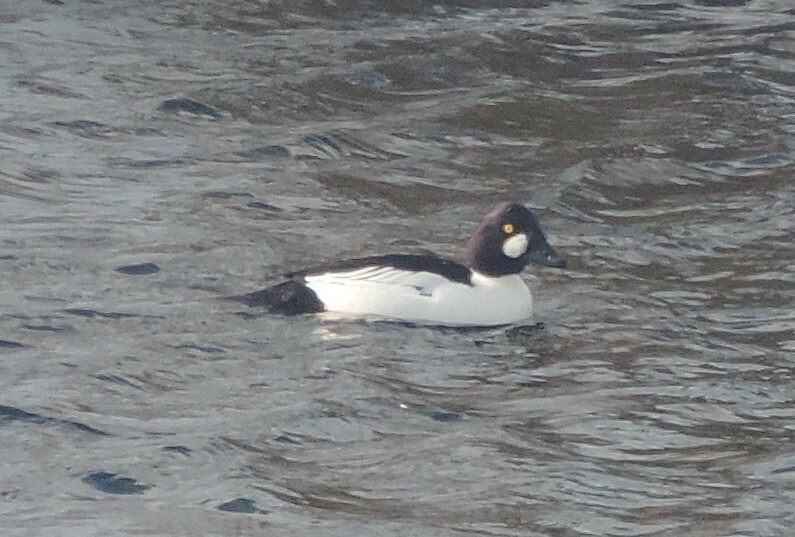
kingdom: Animalia
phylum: Chordata
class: Aves
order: Anseriformes
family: Anatidae
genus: Bucephala
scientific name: Bucephala clangula
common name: Common goldeneye
